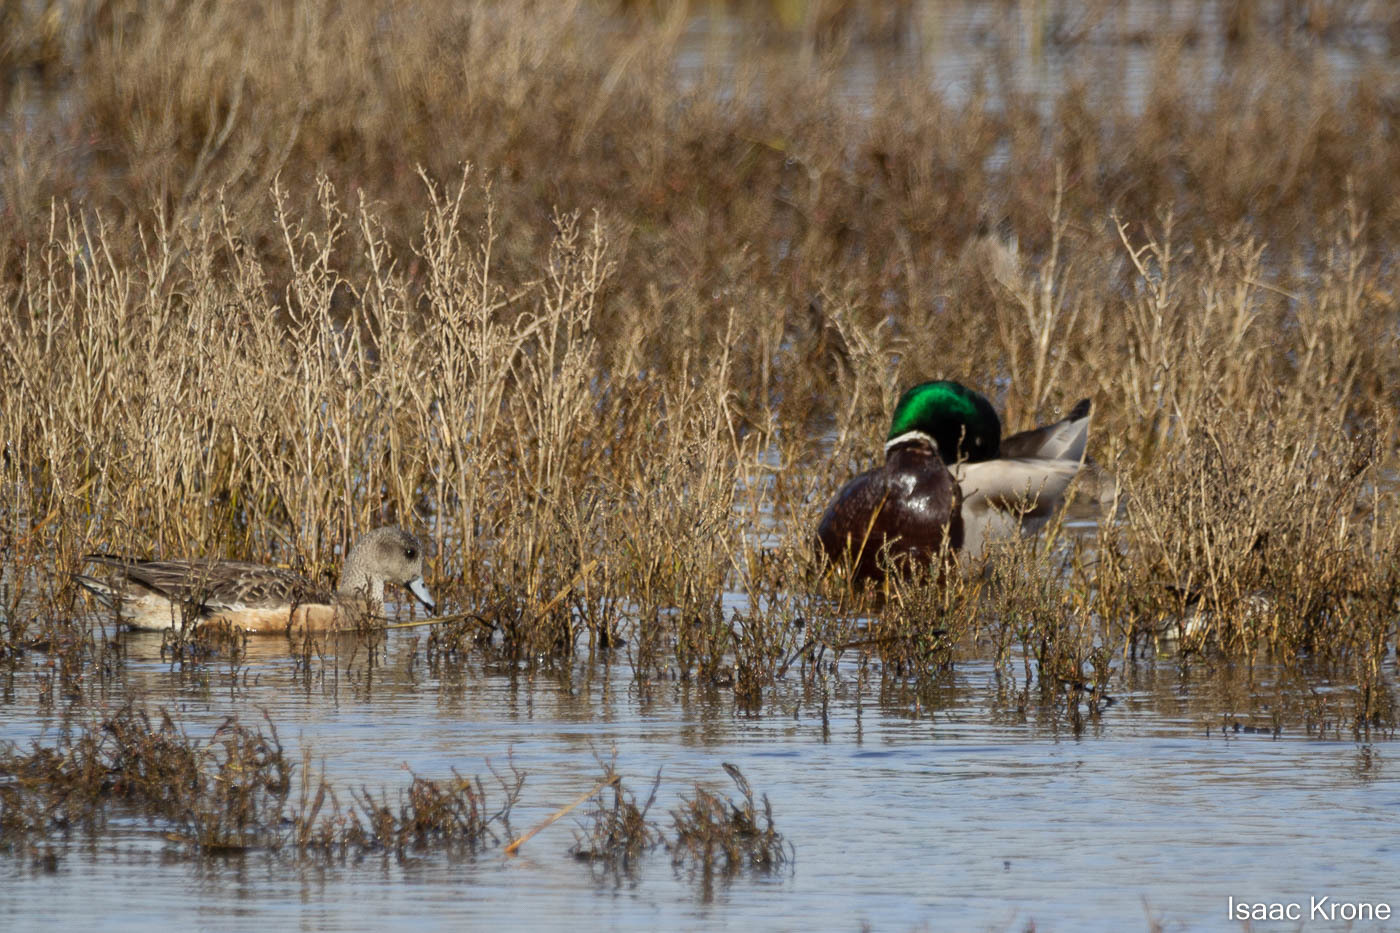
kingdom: Animalia
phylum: Chordata
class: Aves
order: Anseriformes
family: Anatidae
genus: Anas
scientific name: Anas platyrhynchos
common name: Mallard
